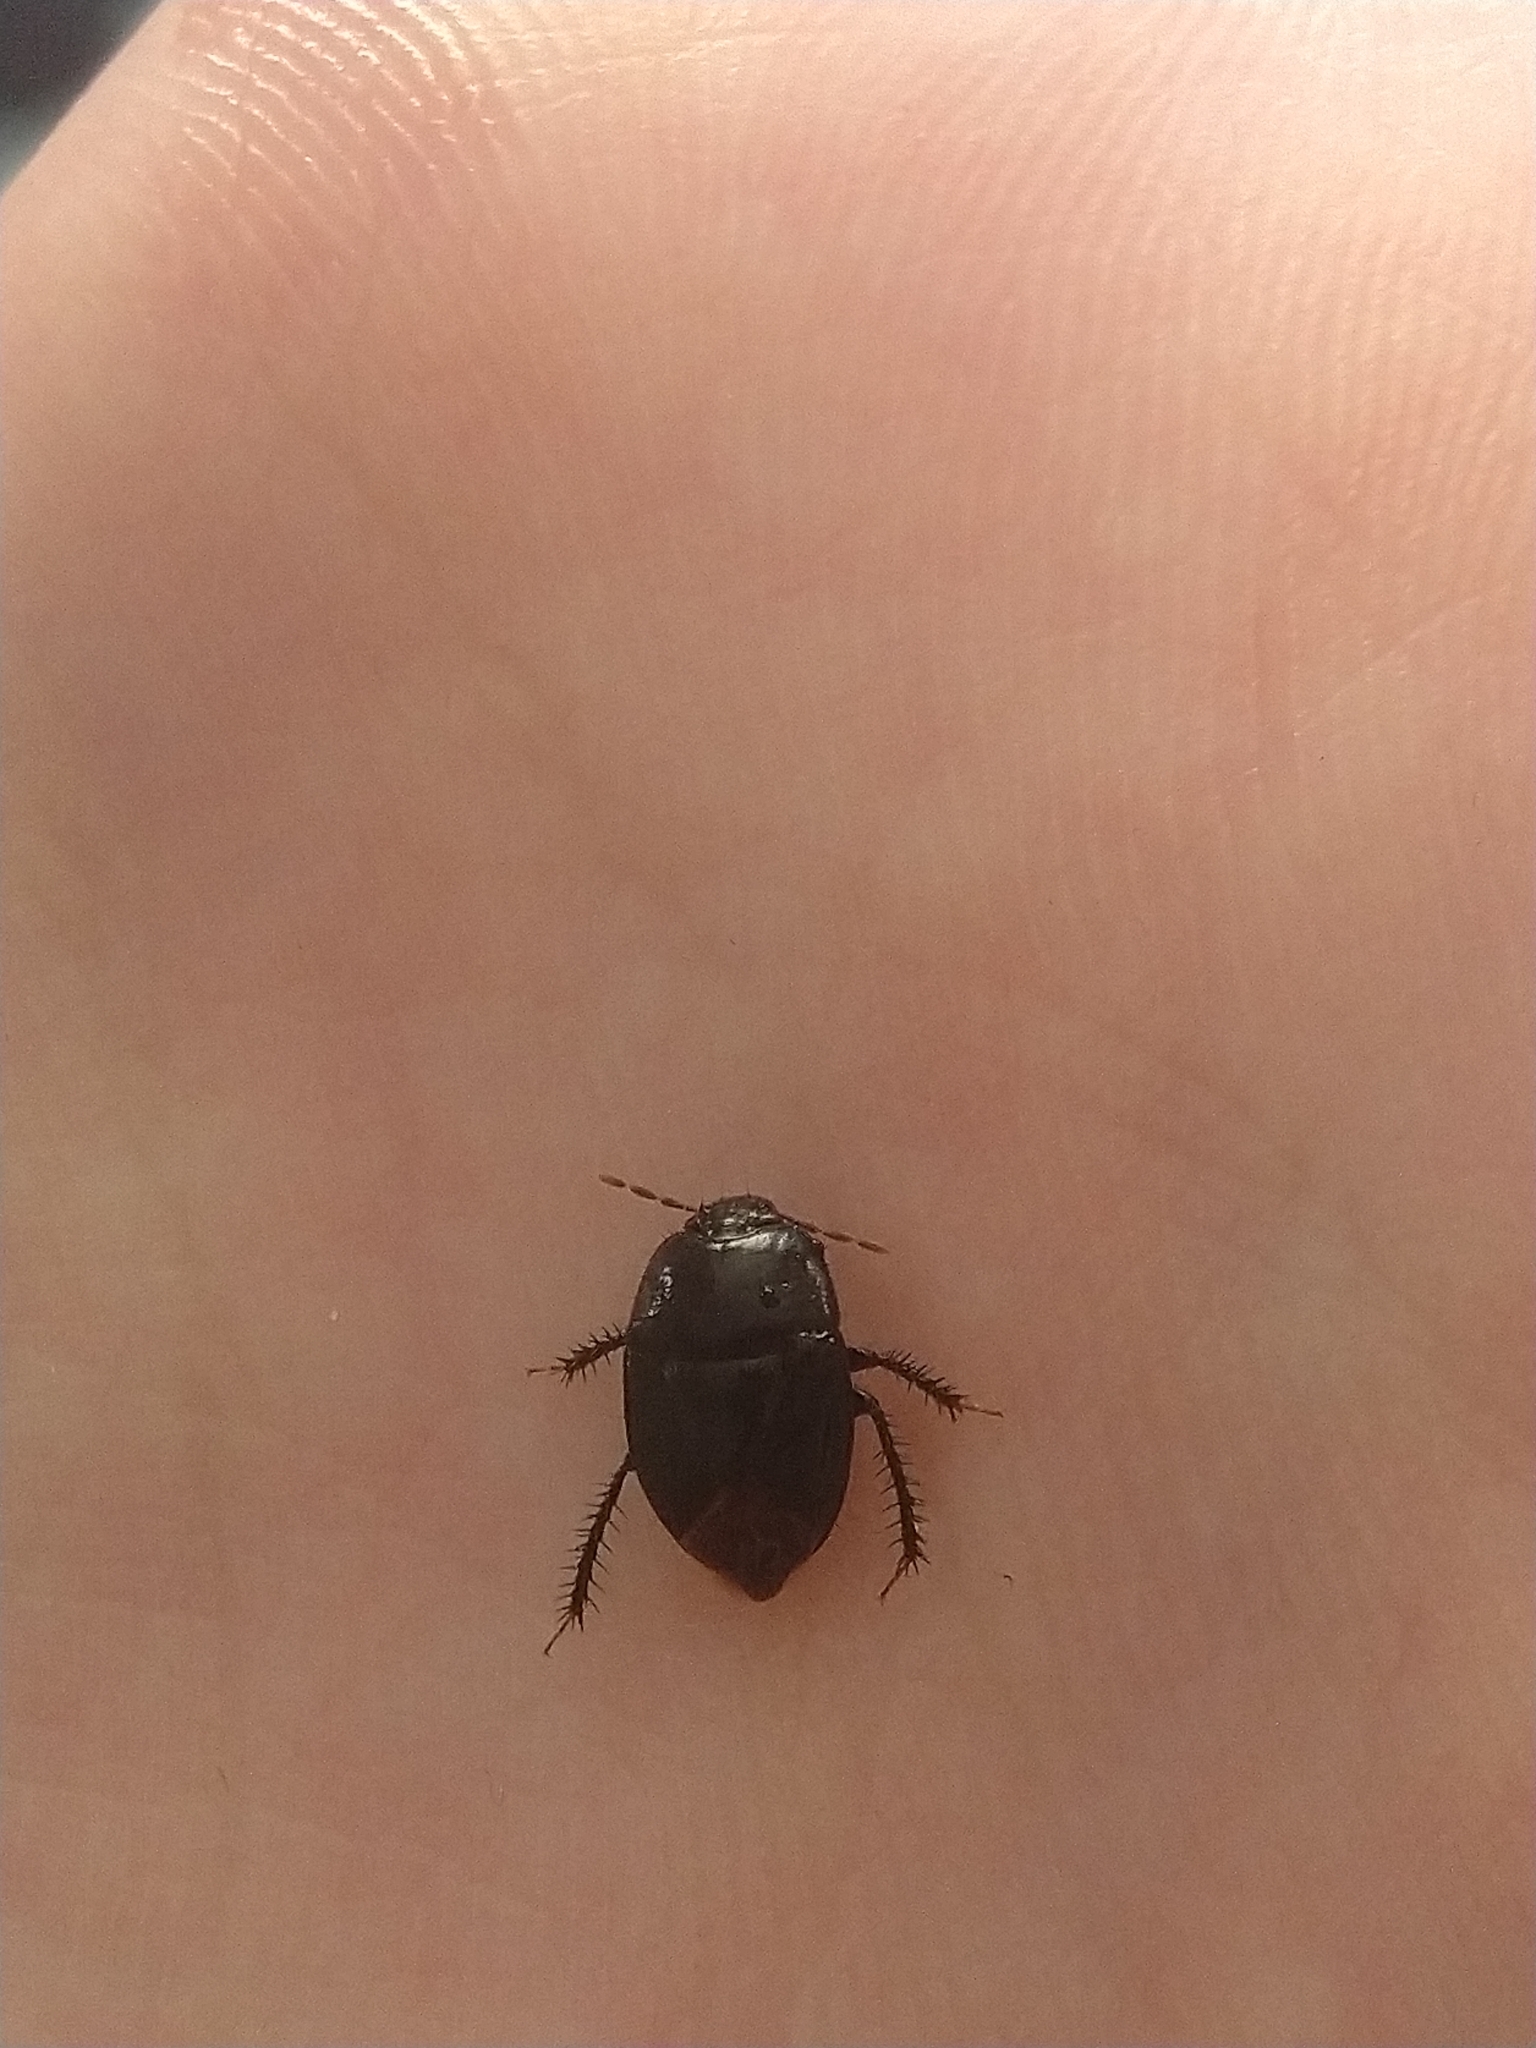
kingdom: Animalia
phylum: Arthropoda
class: Insecta
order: Hemiptera
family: Cydnidae
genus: Pangaeus
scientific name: Pangaeus bilineatus
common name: Burrower bug
